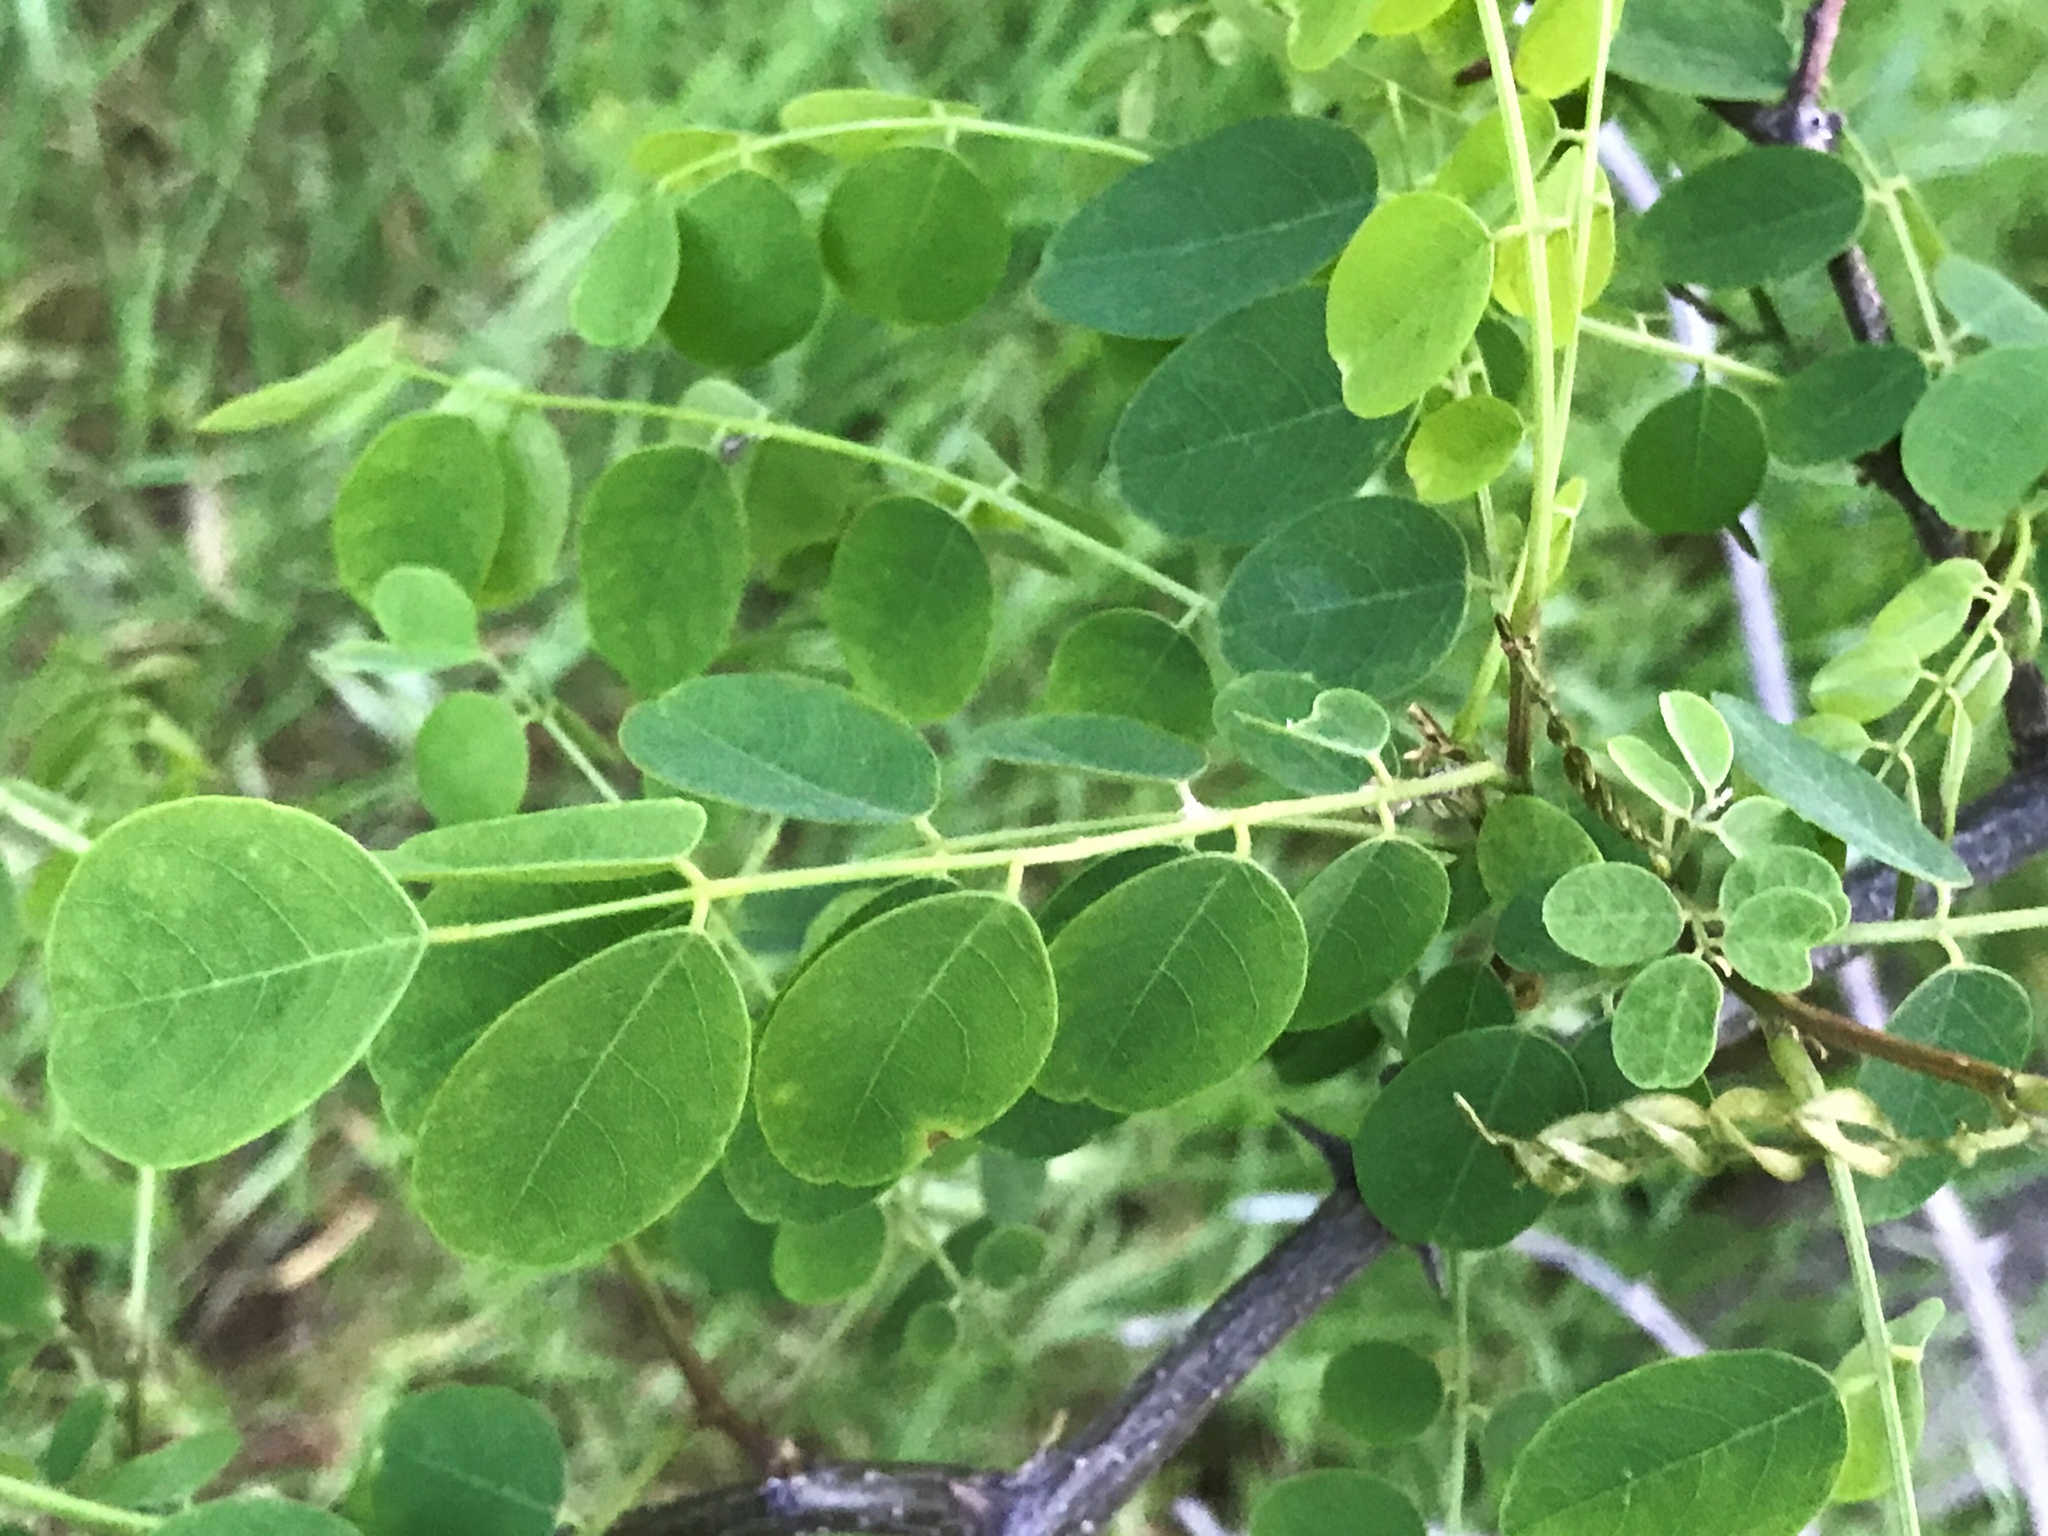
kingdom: Plantae
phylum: Tracheophyta
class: Magnoliopsida
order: Fabales
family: Fabaceae
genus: Robinia
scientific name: Robinia pseudoacacia
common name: Black locust
